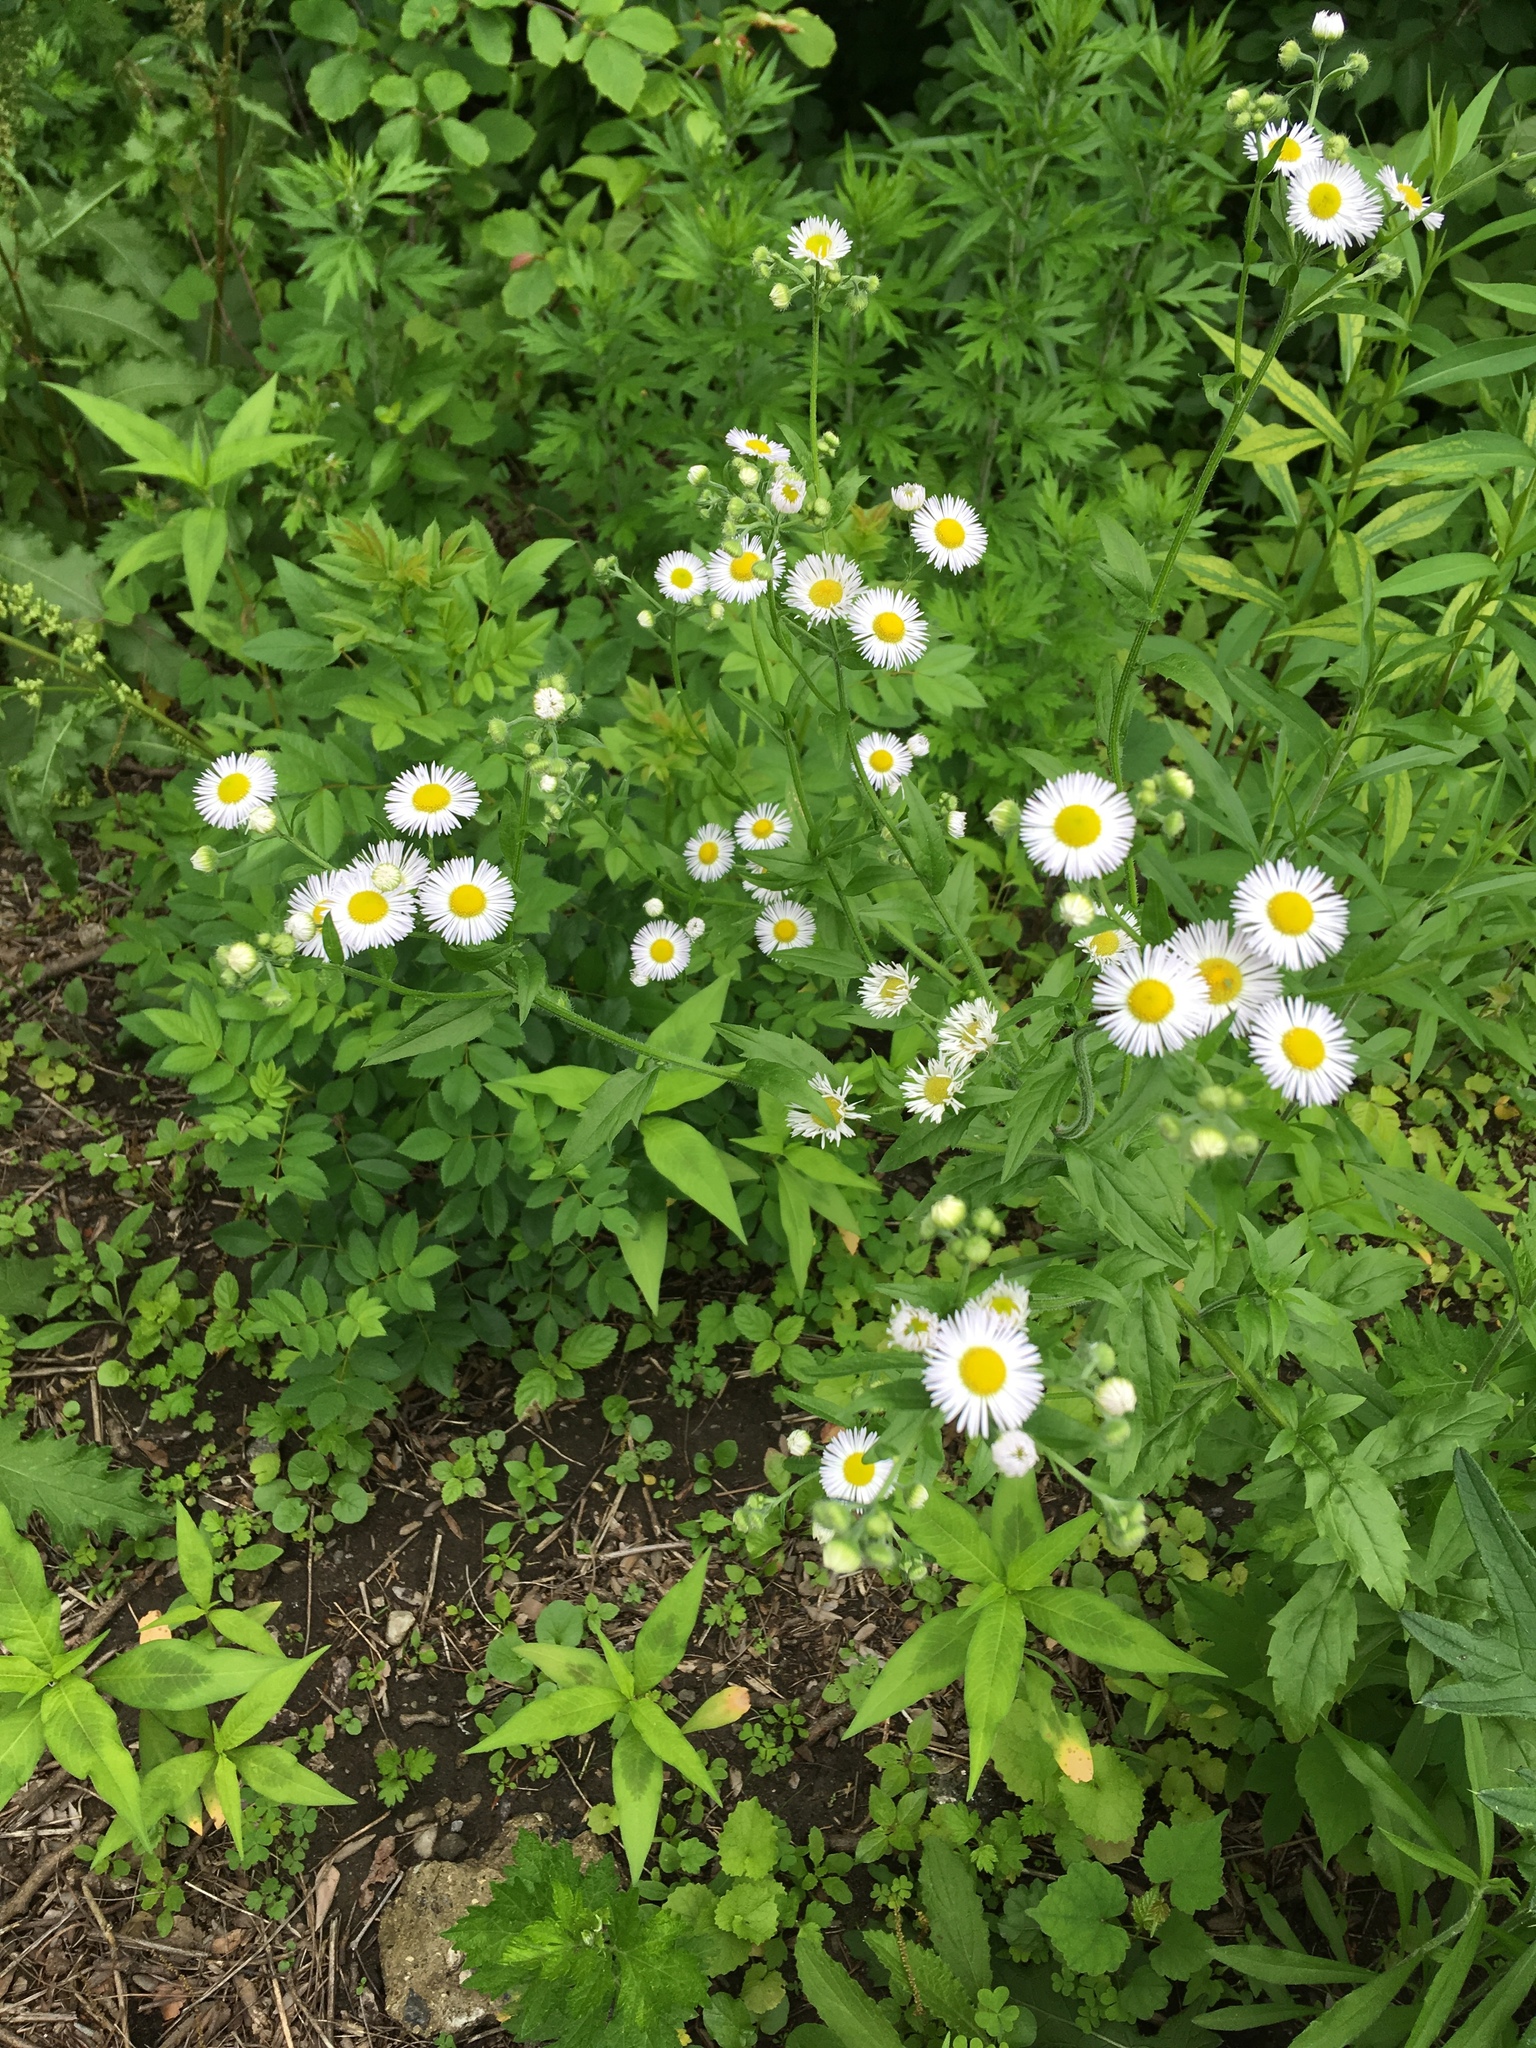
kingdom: Plantae
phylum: Tracheophyta
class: Magnoliopsida
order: Asterales
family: Asteraceae
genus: Erigeron
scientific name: Erigeron philadelphicus
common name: Robin's-plantain
